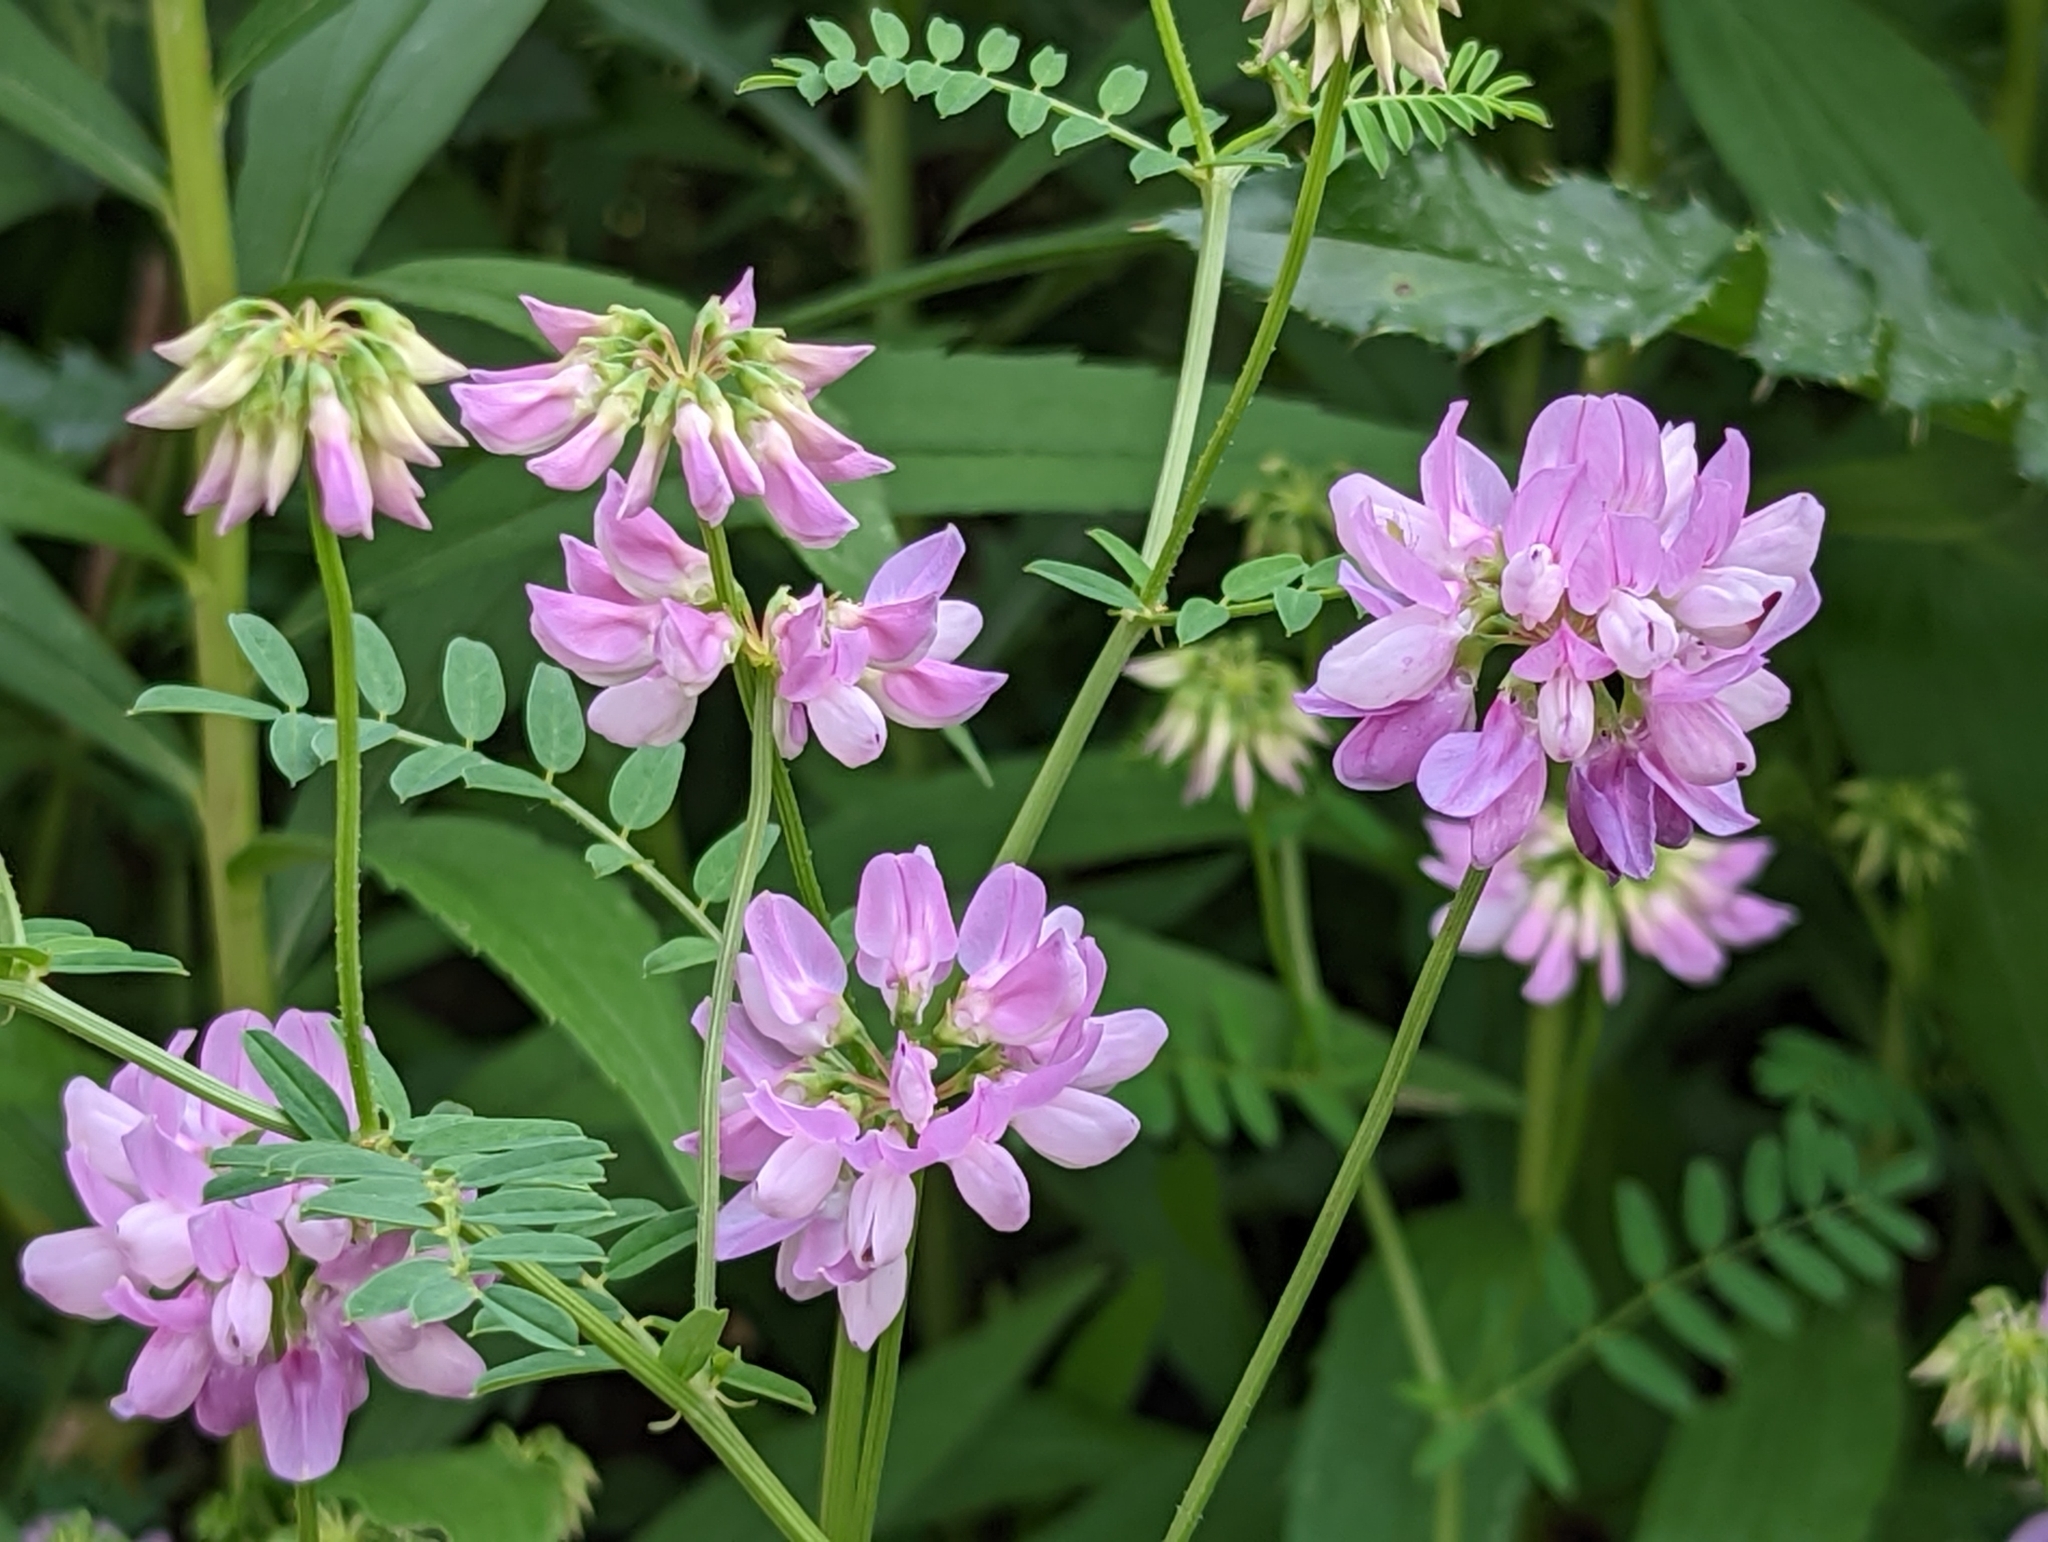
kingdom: Plantae
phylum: Tracheophyta
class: Magnoliopsida
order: Fabales
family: Fabaceae
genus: Coronilla
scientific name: Coronilla varia
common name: Crownvetch
